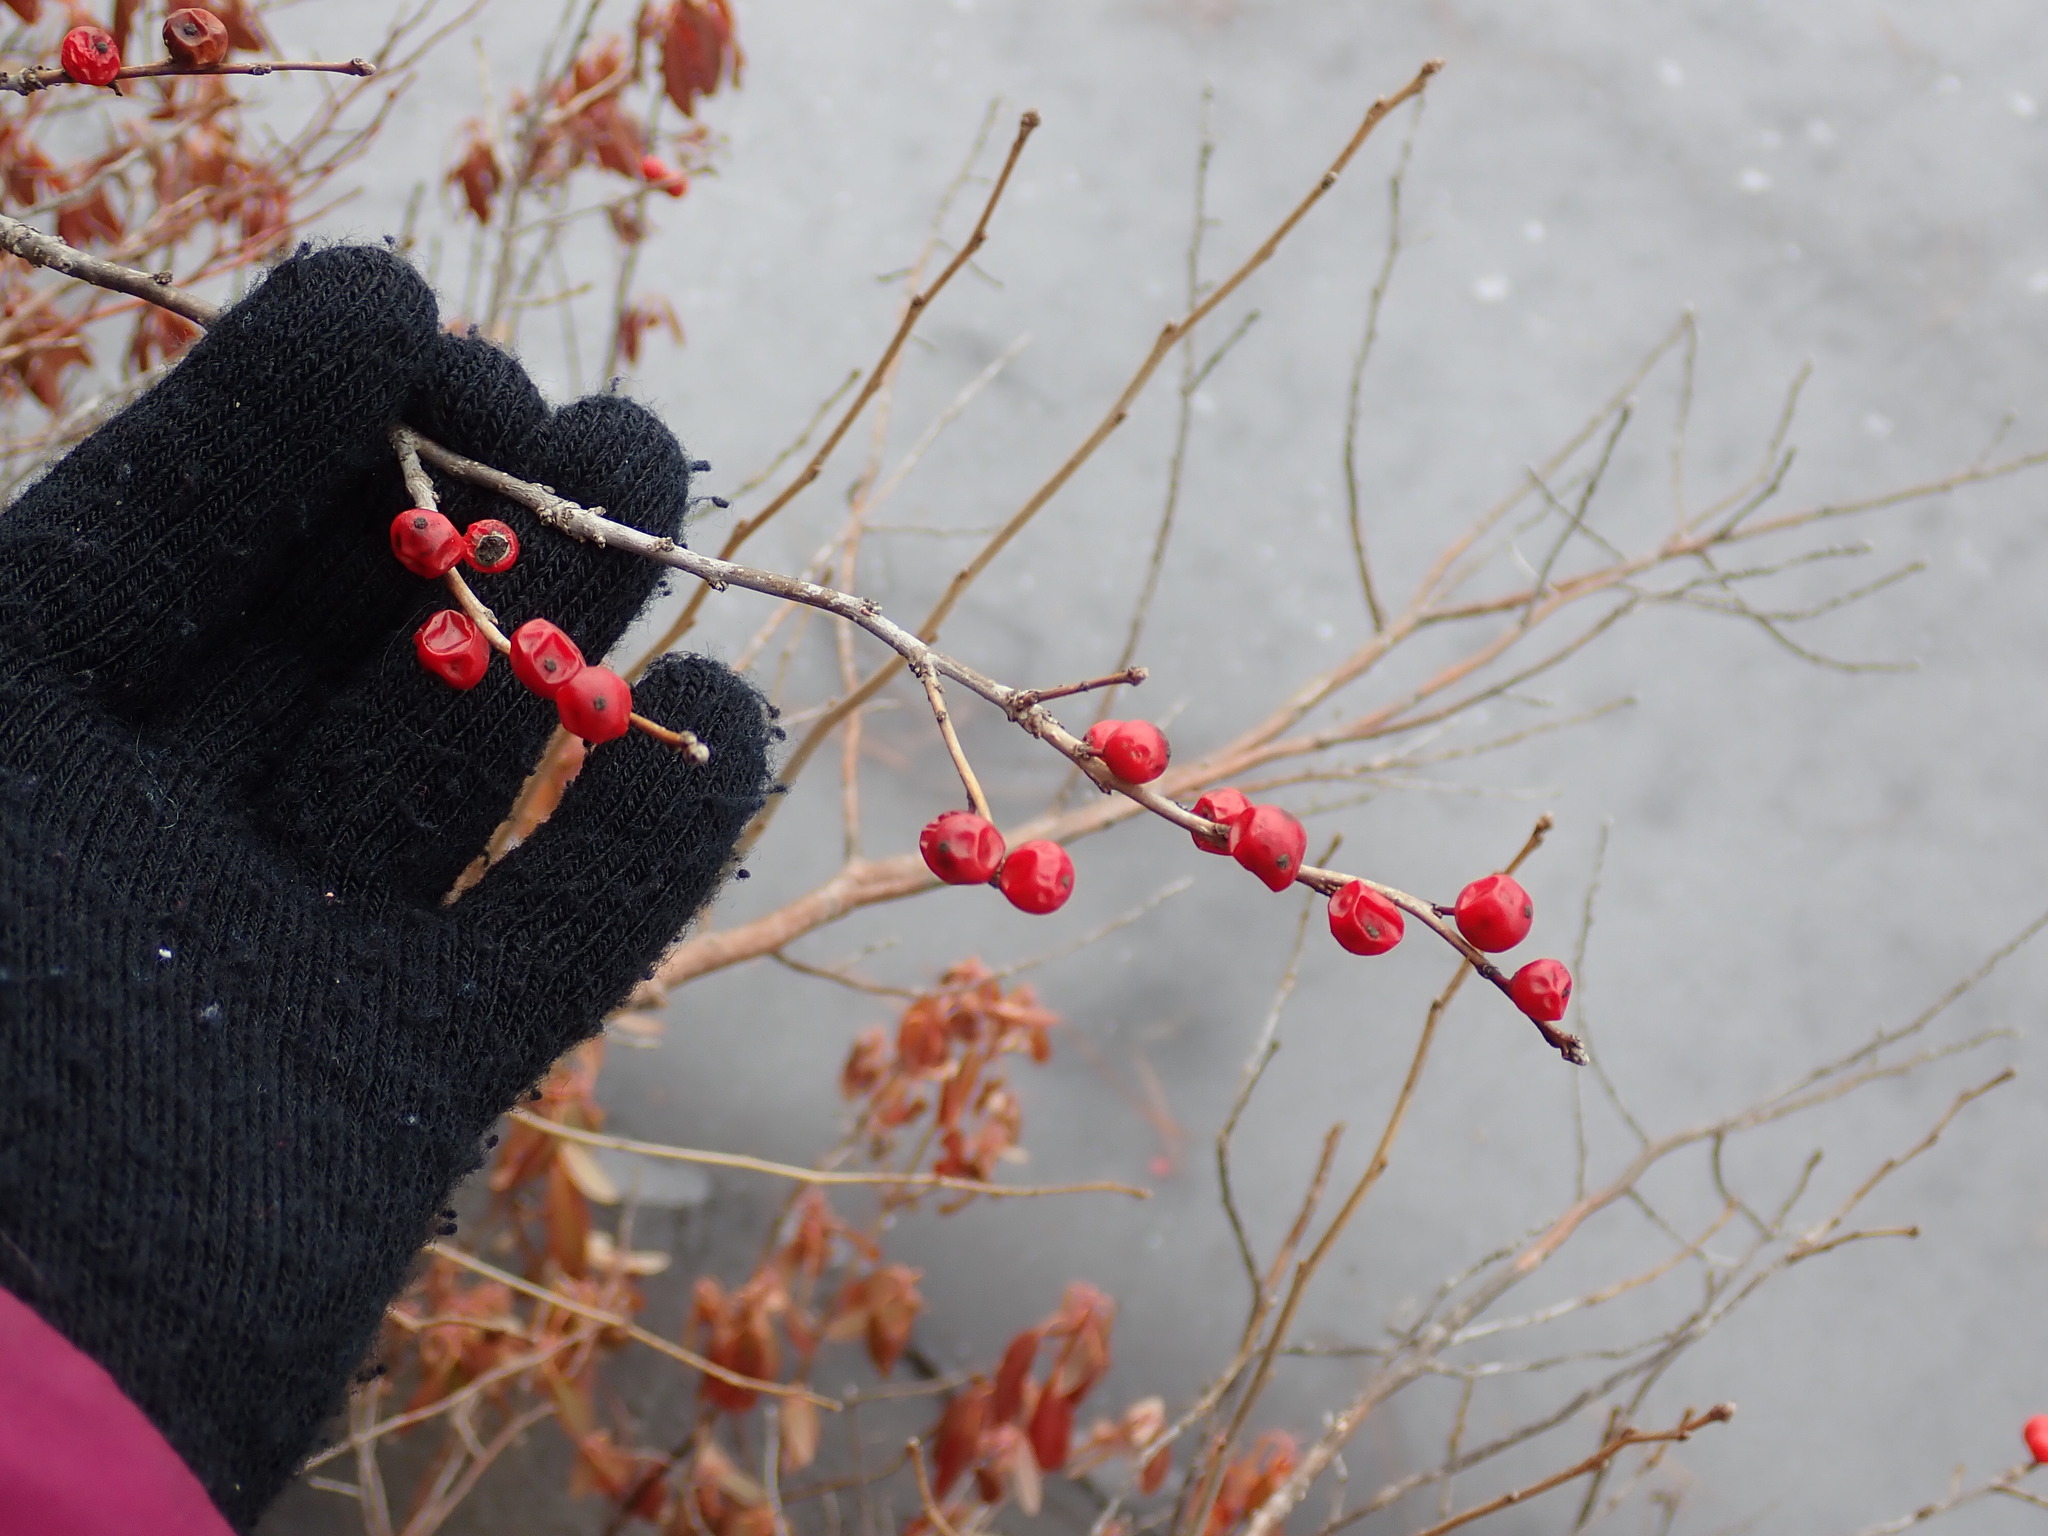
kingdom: Plantae
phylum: Tracheophyta
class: Magnoliopsida
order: Aquifoliales
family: Aquifoliaceae
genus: Ilex
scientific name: Ilex verticillata
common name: Virginia winterberry
